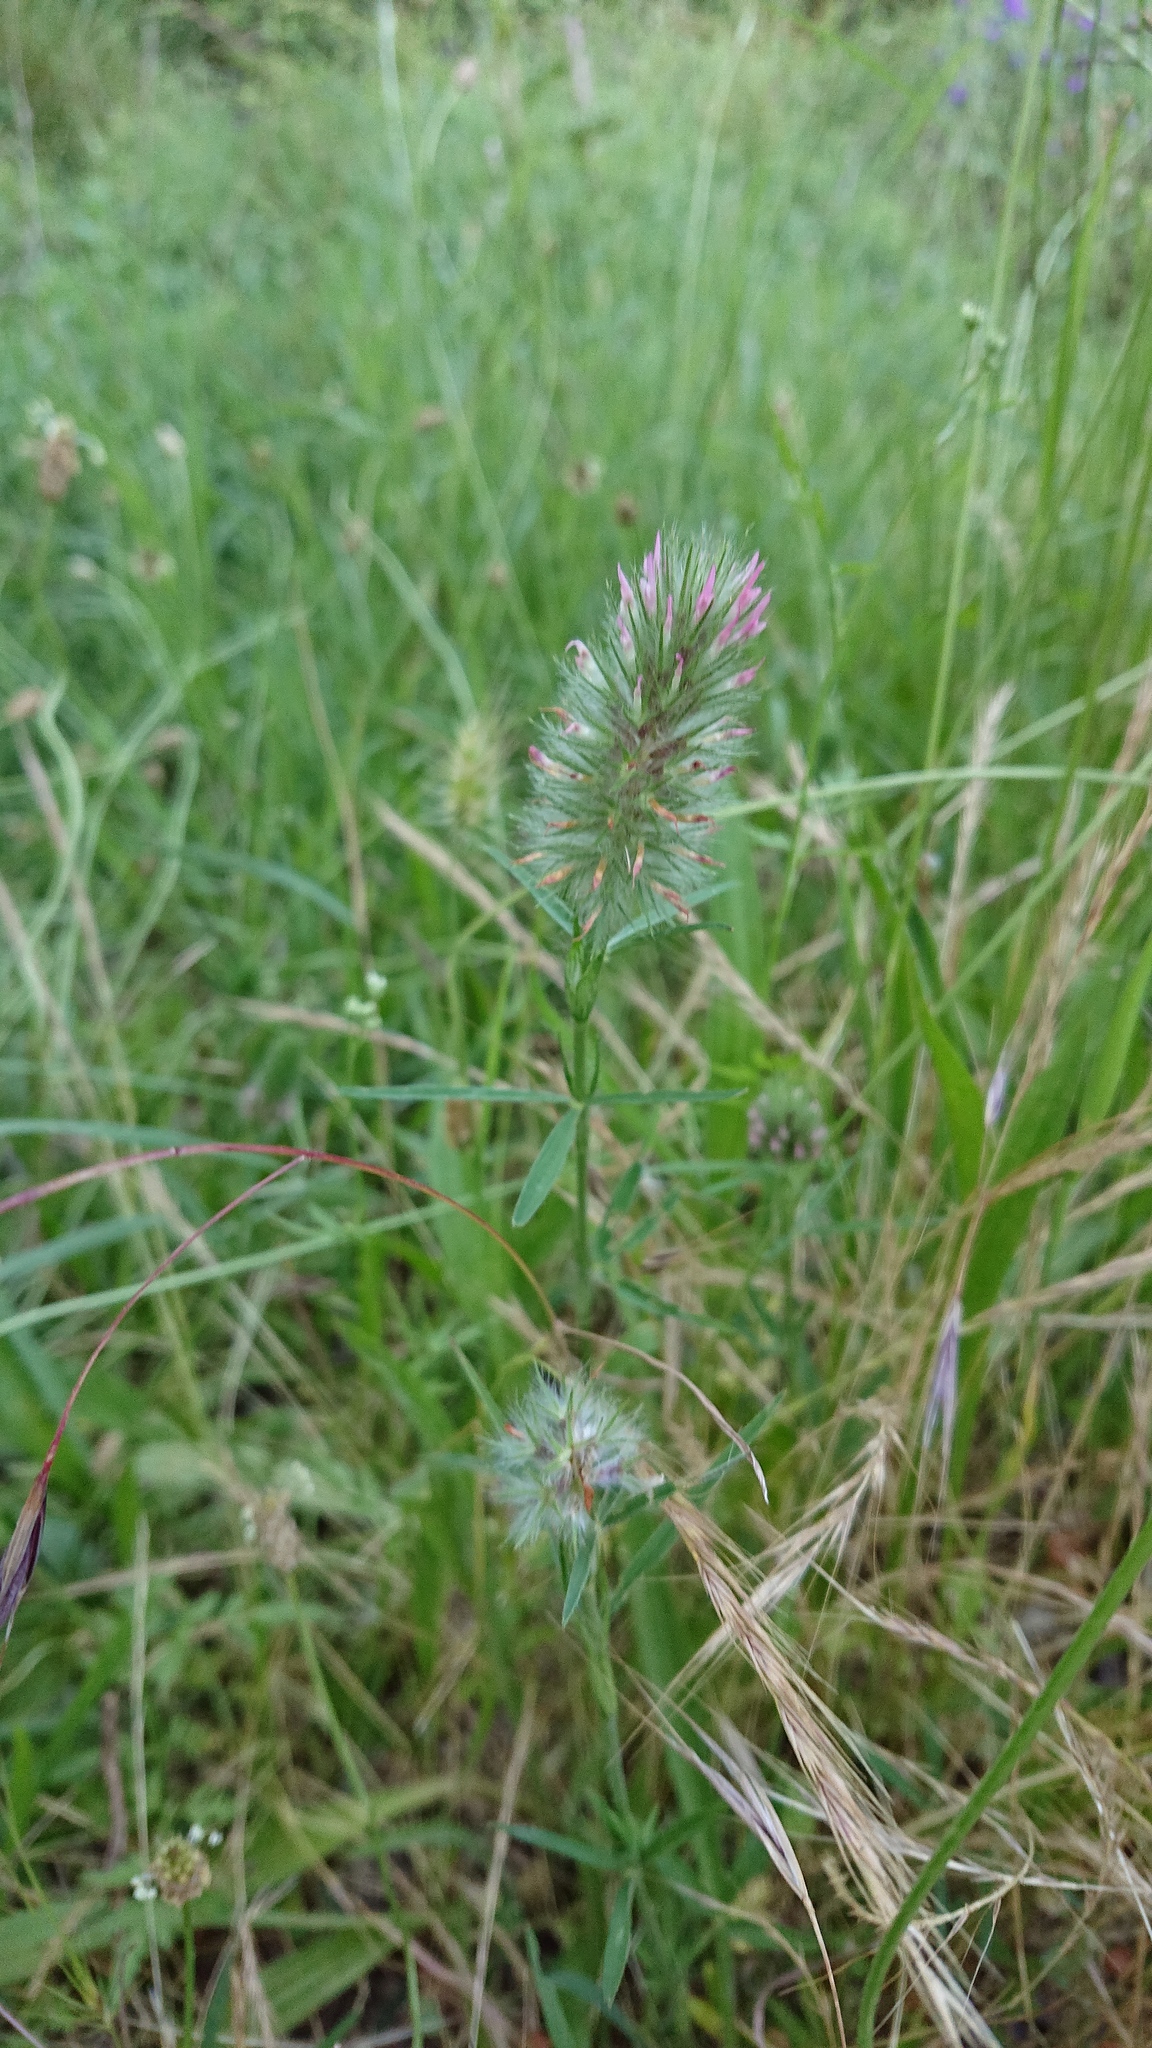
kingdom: Plantae
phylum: Tracheophyta
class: Magnoliopsida
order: Fabales
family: Fabaceae
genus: Trifolium
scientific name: Trifolium angustifolium
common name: Narrow clover
